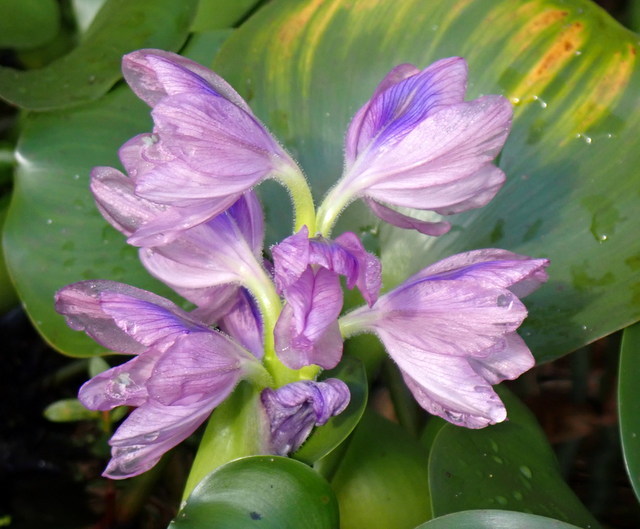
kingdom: Plantae
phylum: Tracheophyta
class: Liliopsida
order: Commelinales
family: Pontederiaceae
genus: Pontederia
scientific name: Pontederia crassipes
